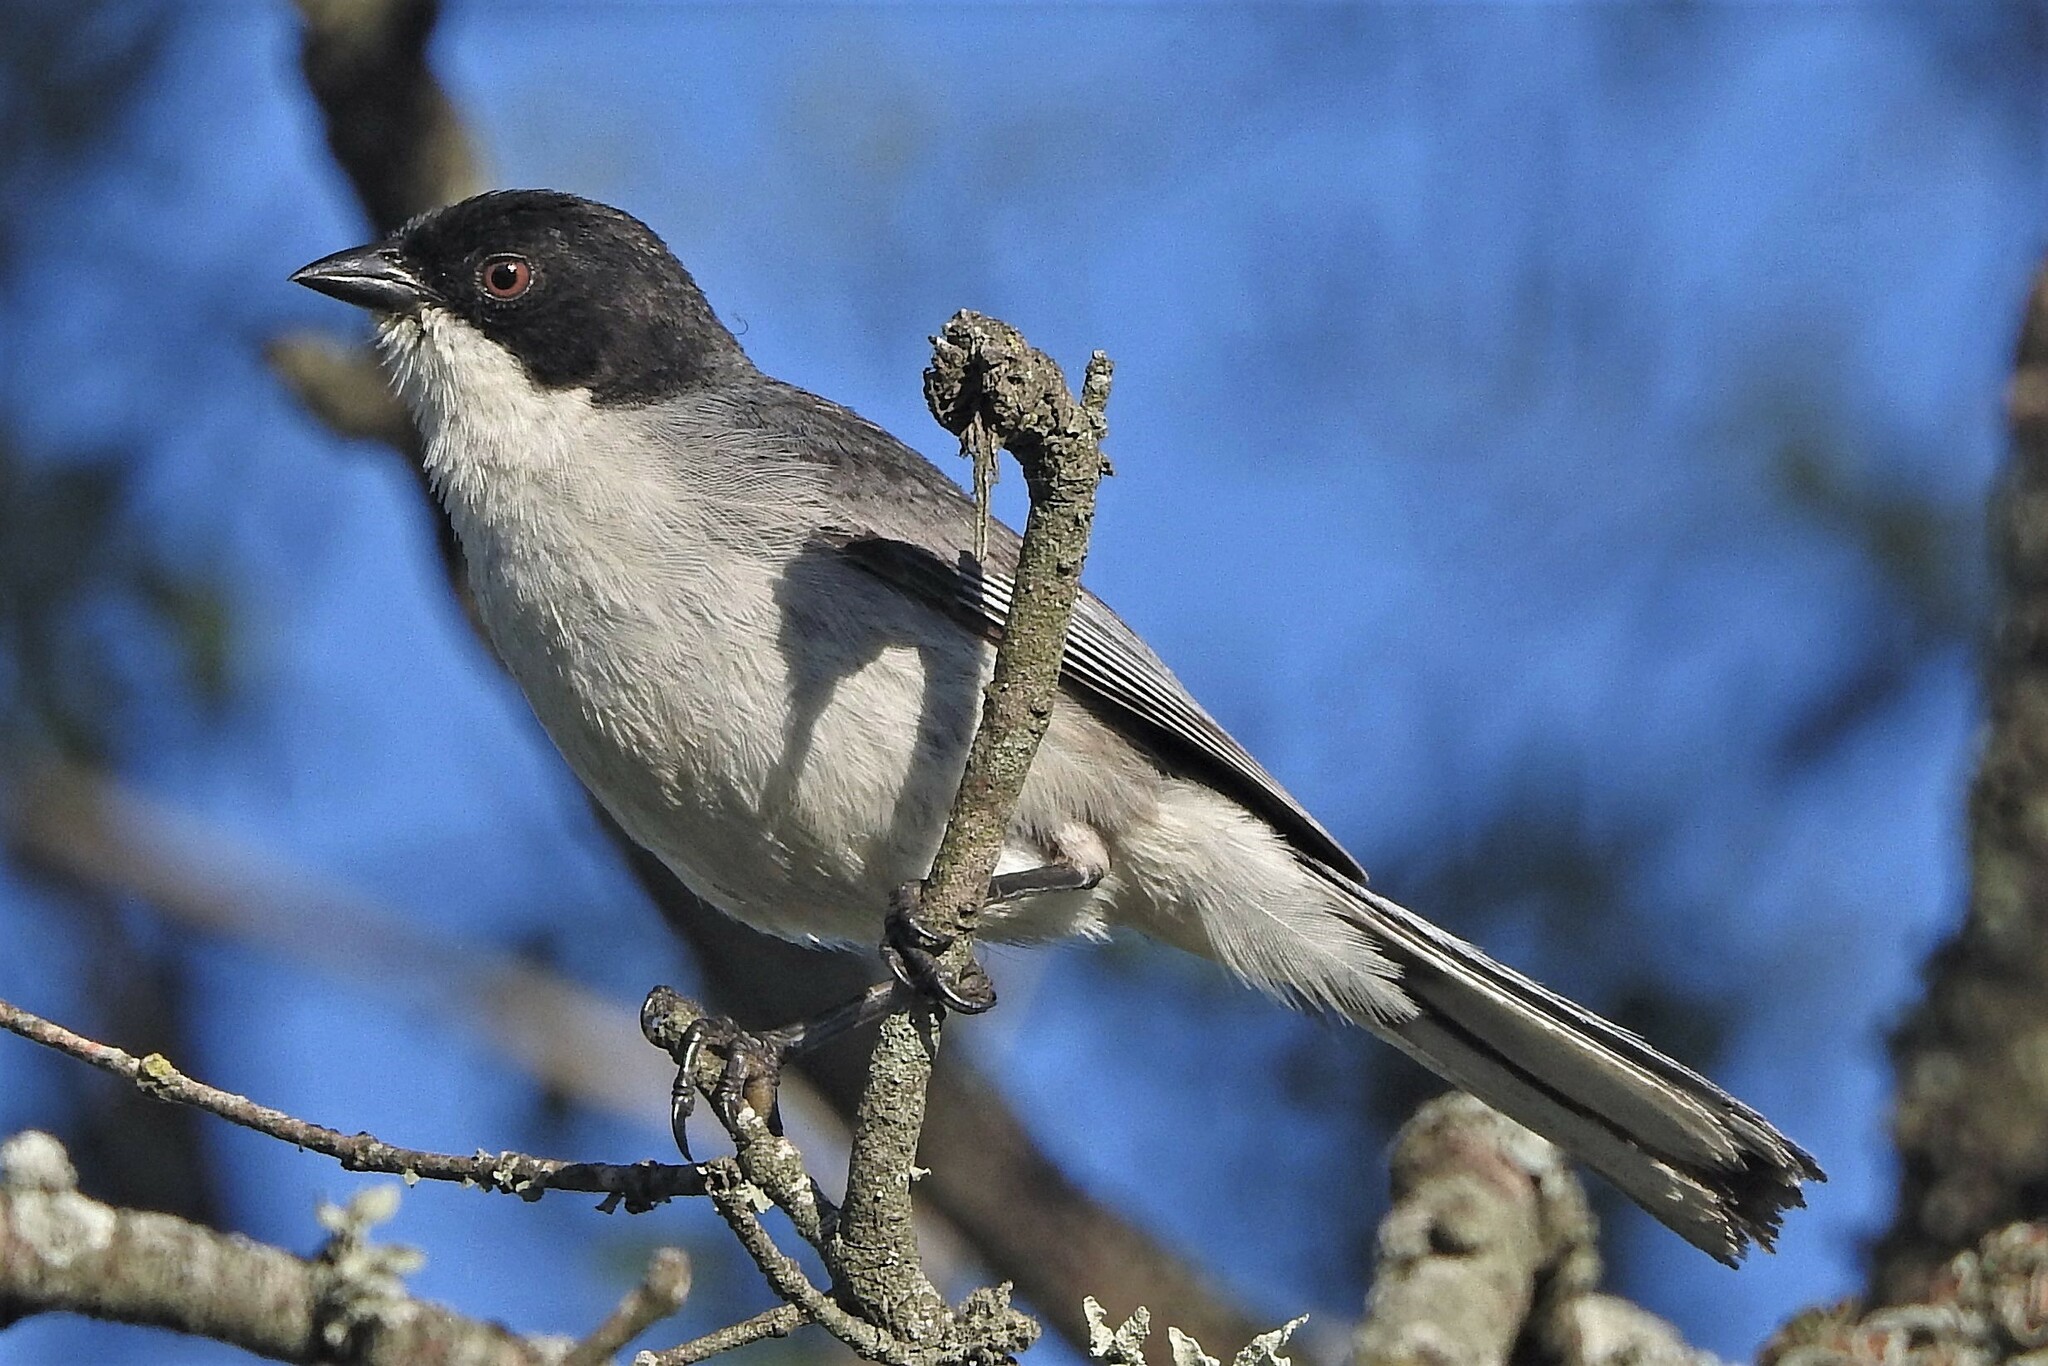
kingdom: Animalia
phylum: Chordata
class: Aves
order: Passeriformes
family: Thraupidae
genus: Microspingus
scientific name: Microspingus melanoleucus
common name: Black-capped warbling-finch
